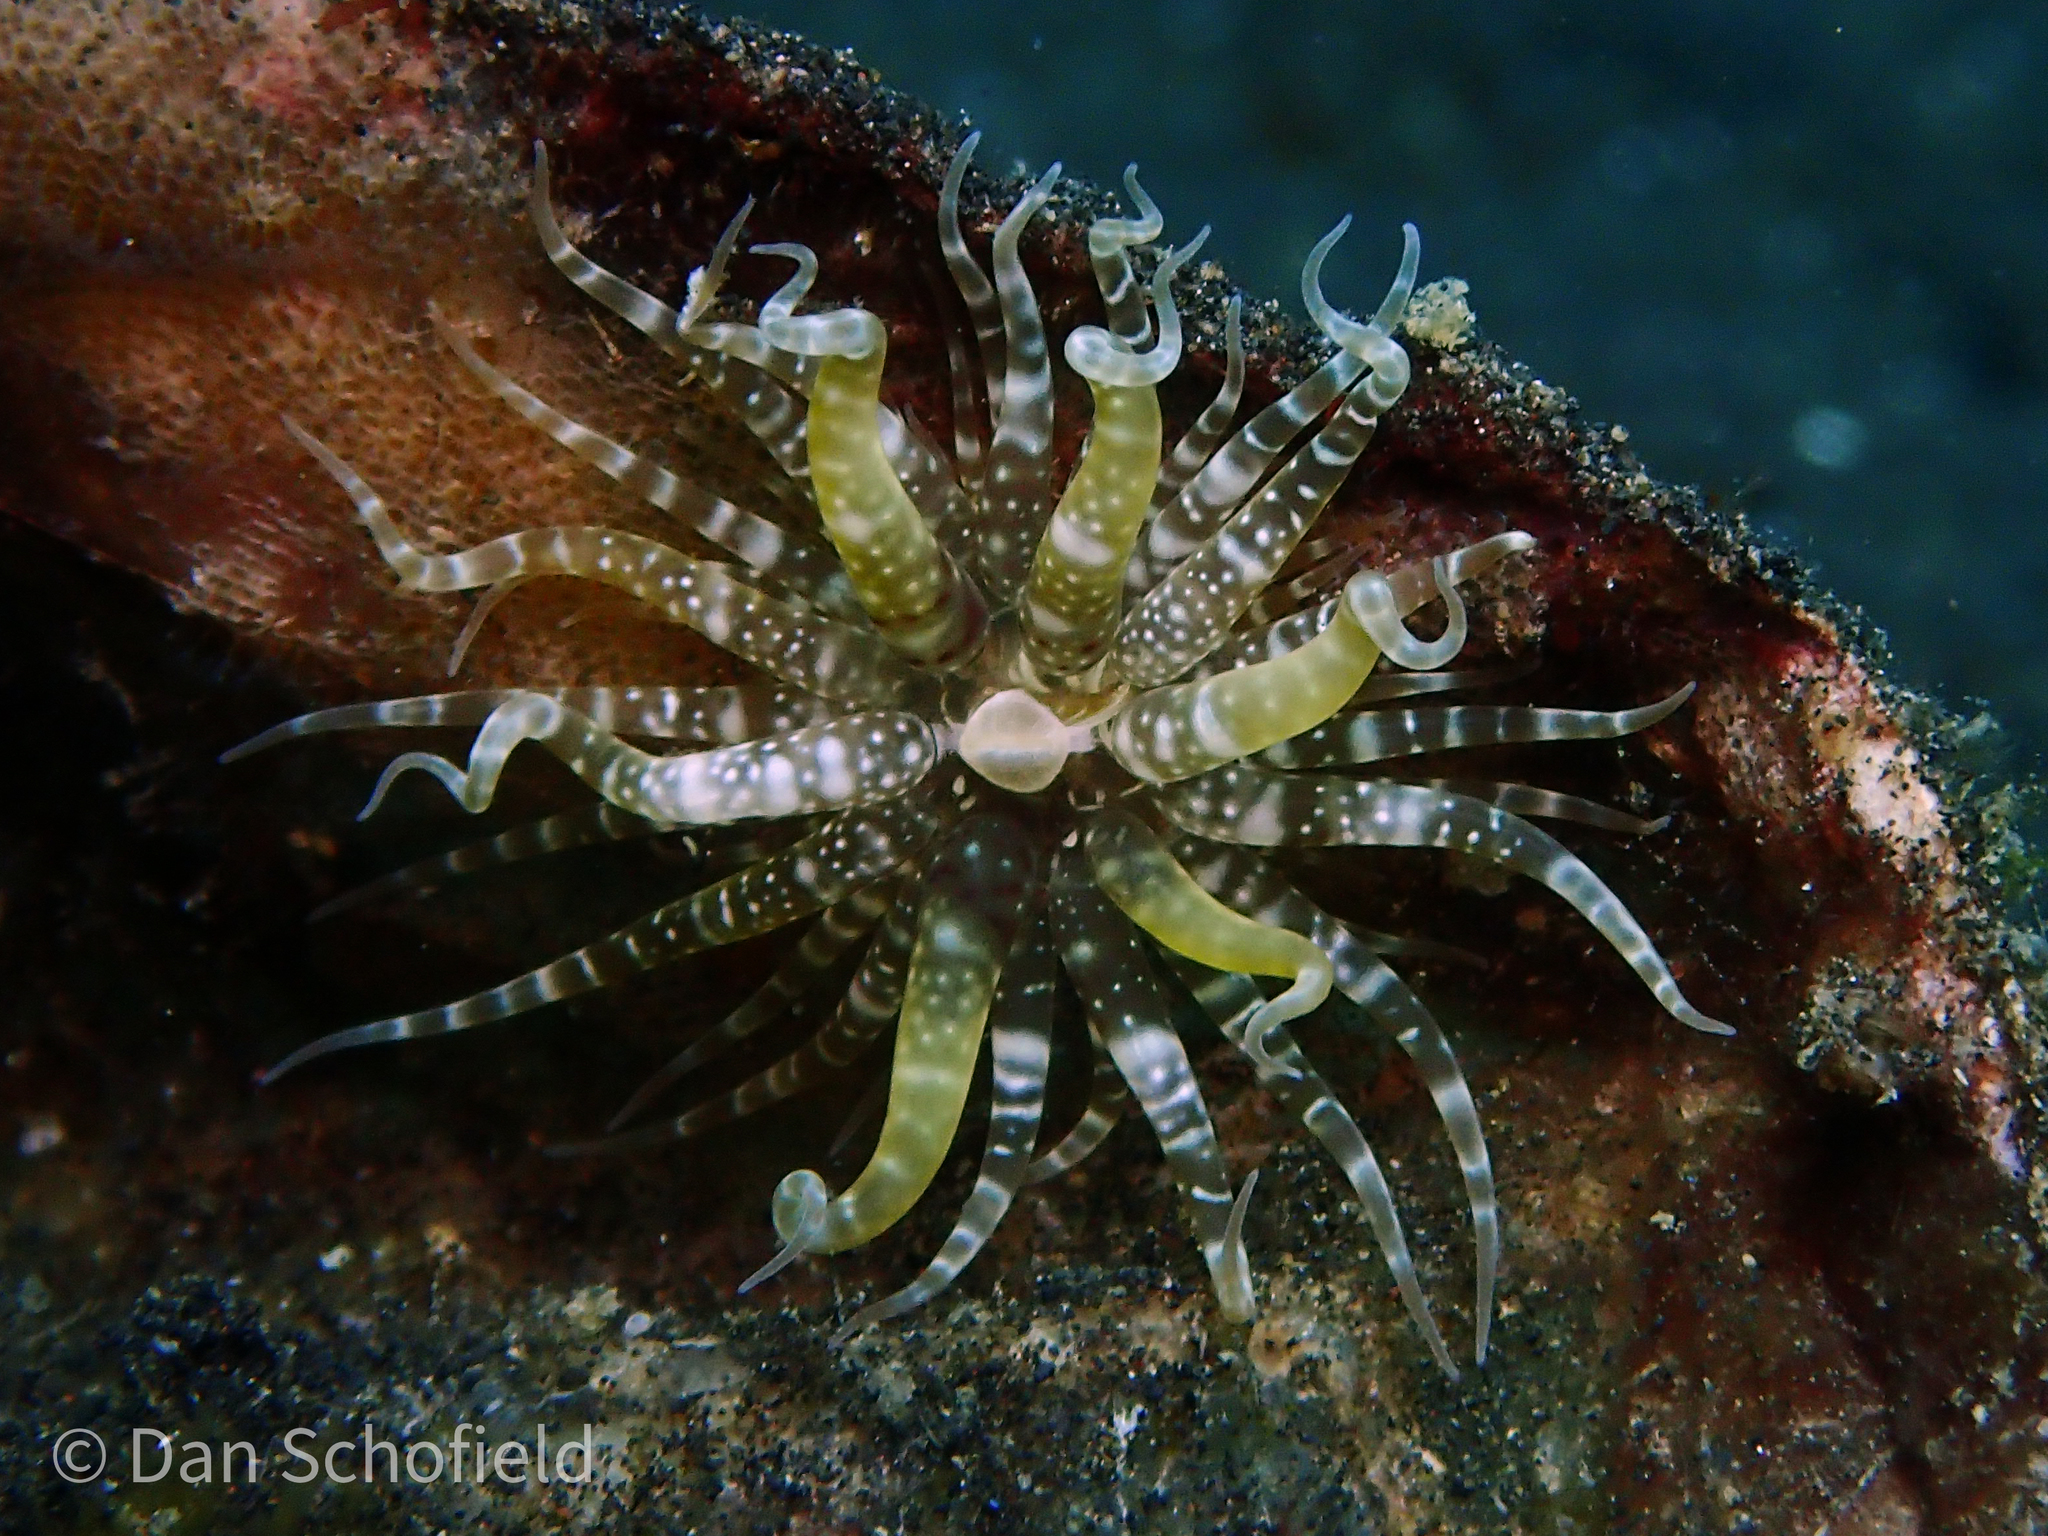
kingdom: Animalia
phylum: Cnidaria
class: Anthozoa
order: Actiniaria
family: Boloceroididae
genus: Boloceroides
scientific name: Boloceroides mcmurrichi
